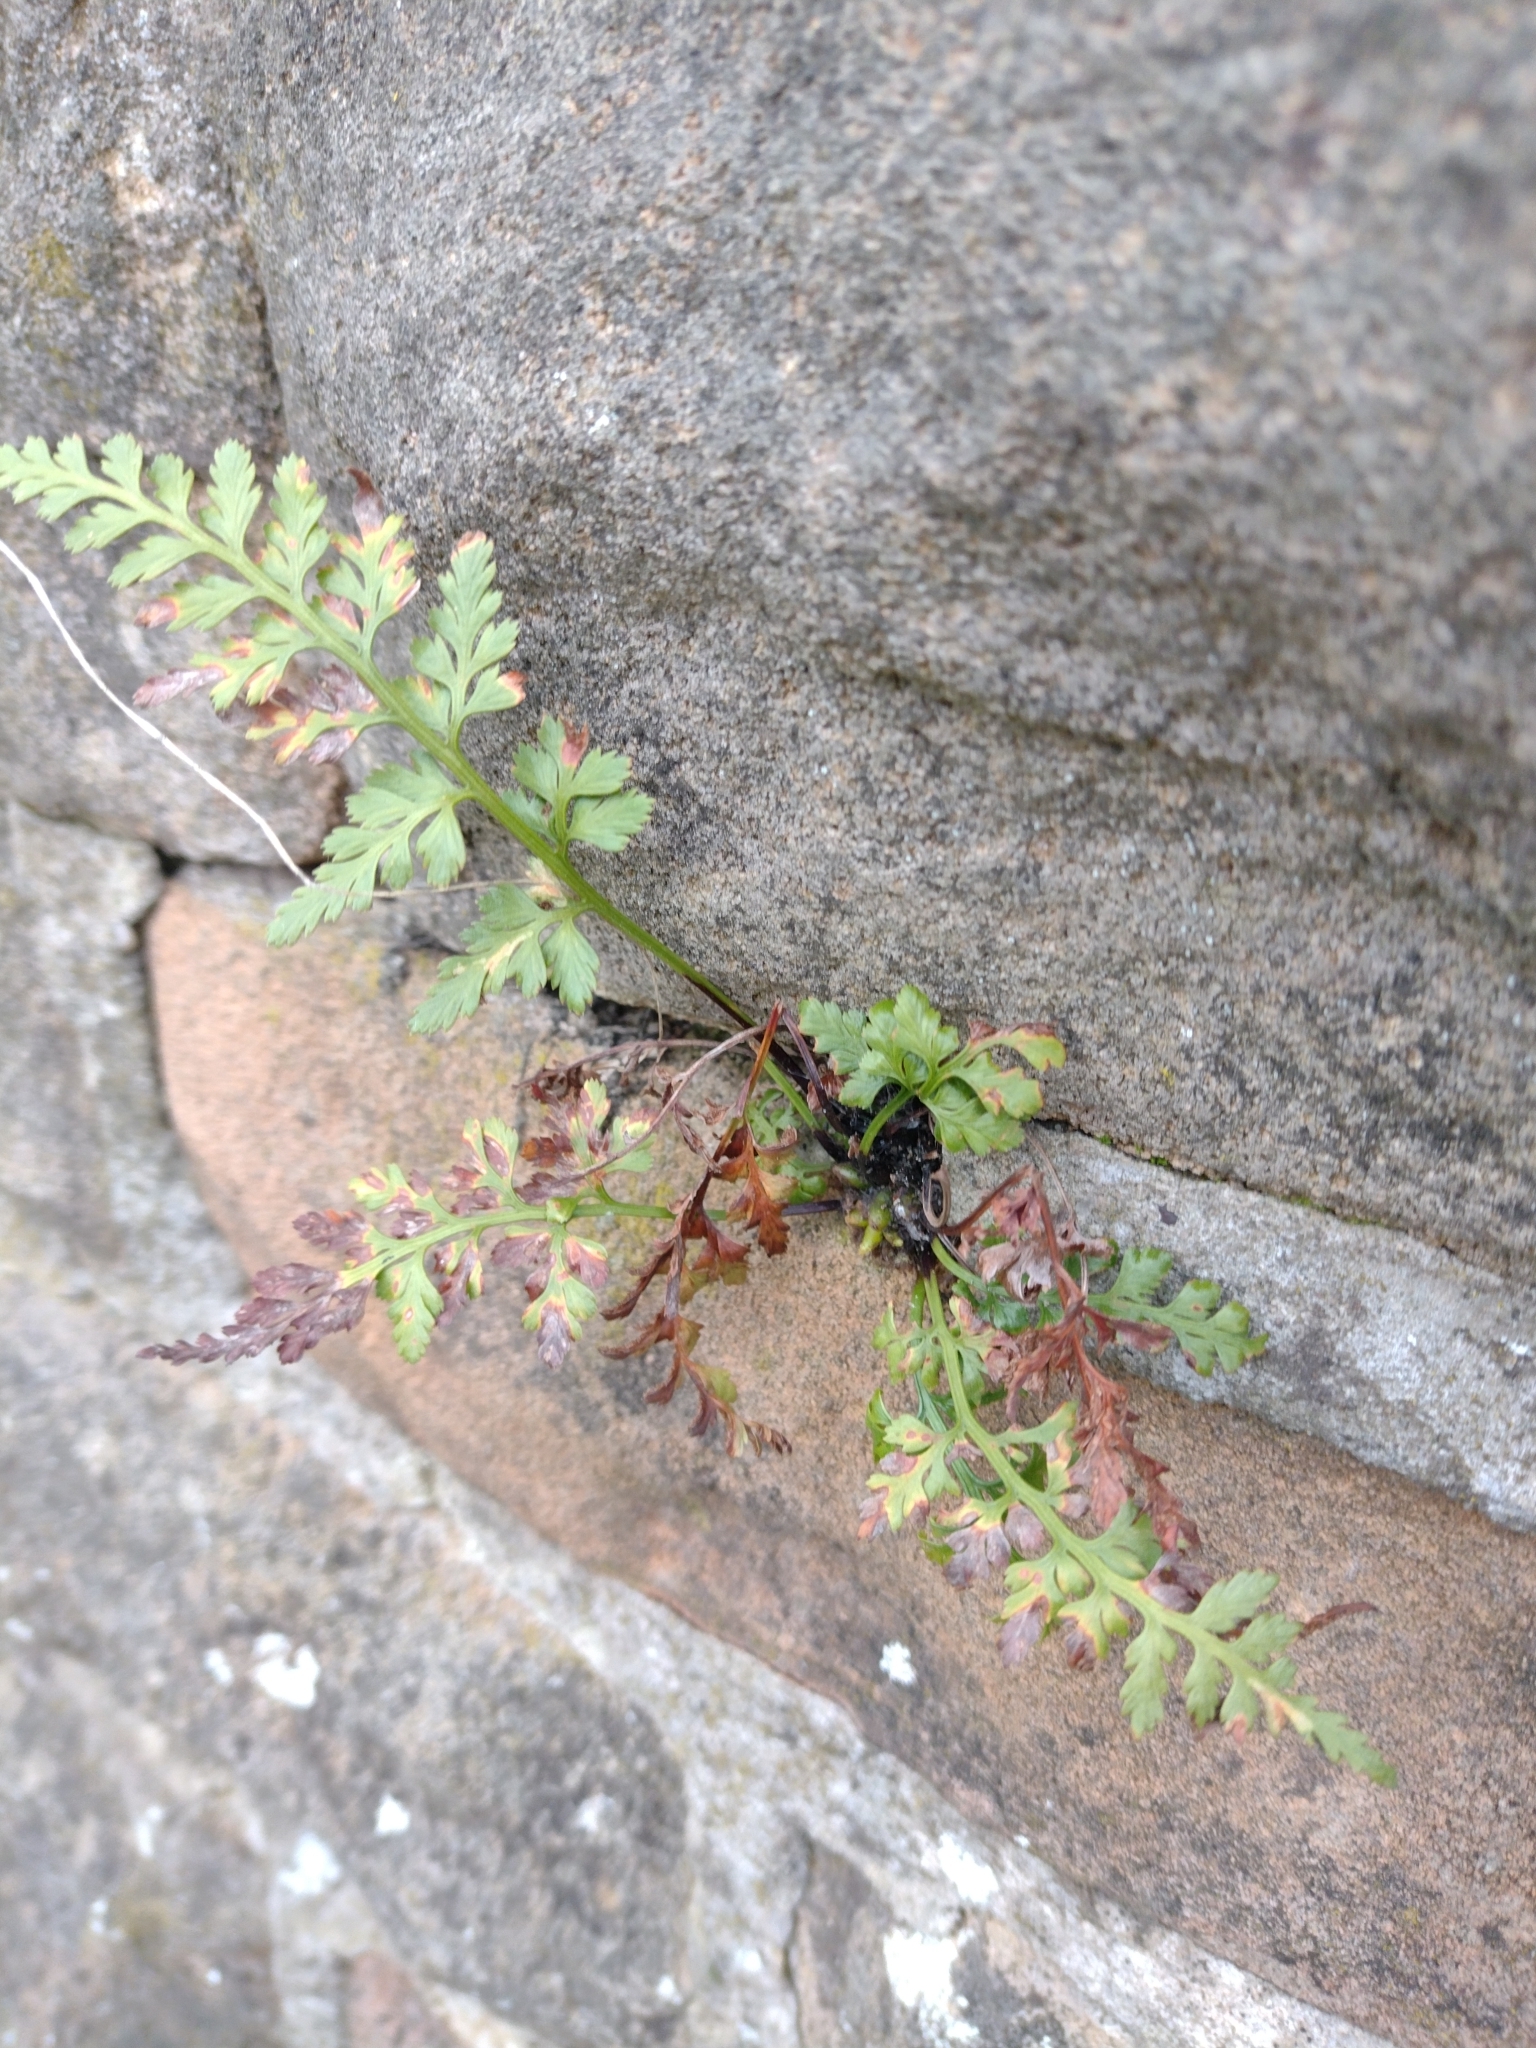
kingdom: Plantae
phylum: Tracheophyta
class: Polypodiopsida
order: Polypodiales
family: Aspleniaceae
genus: Asplenium
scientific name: Asplenium adiantum-nigrum
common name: Black spleenwort
